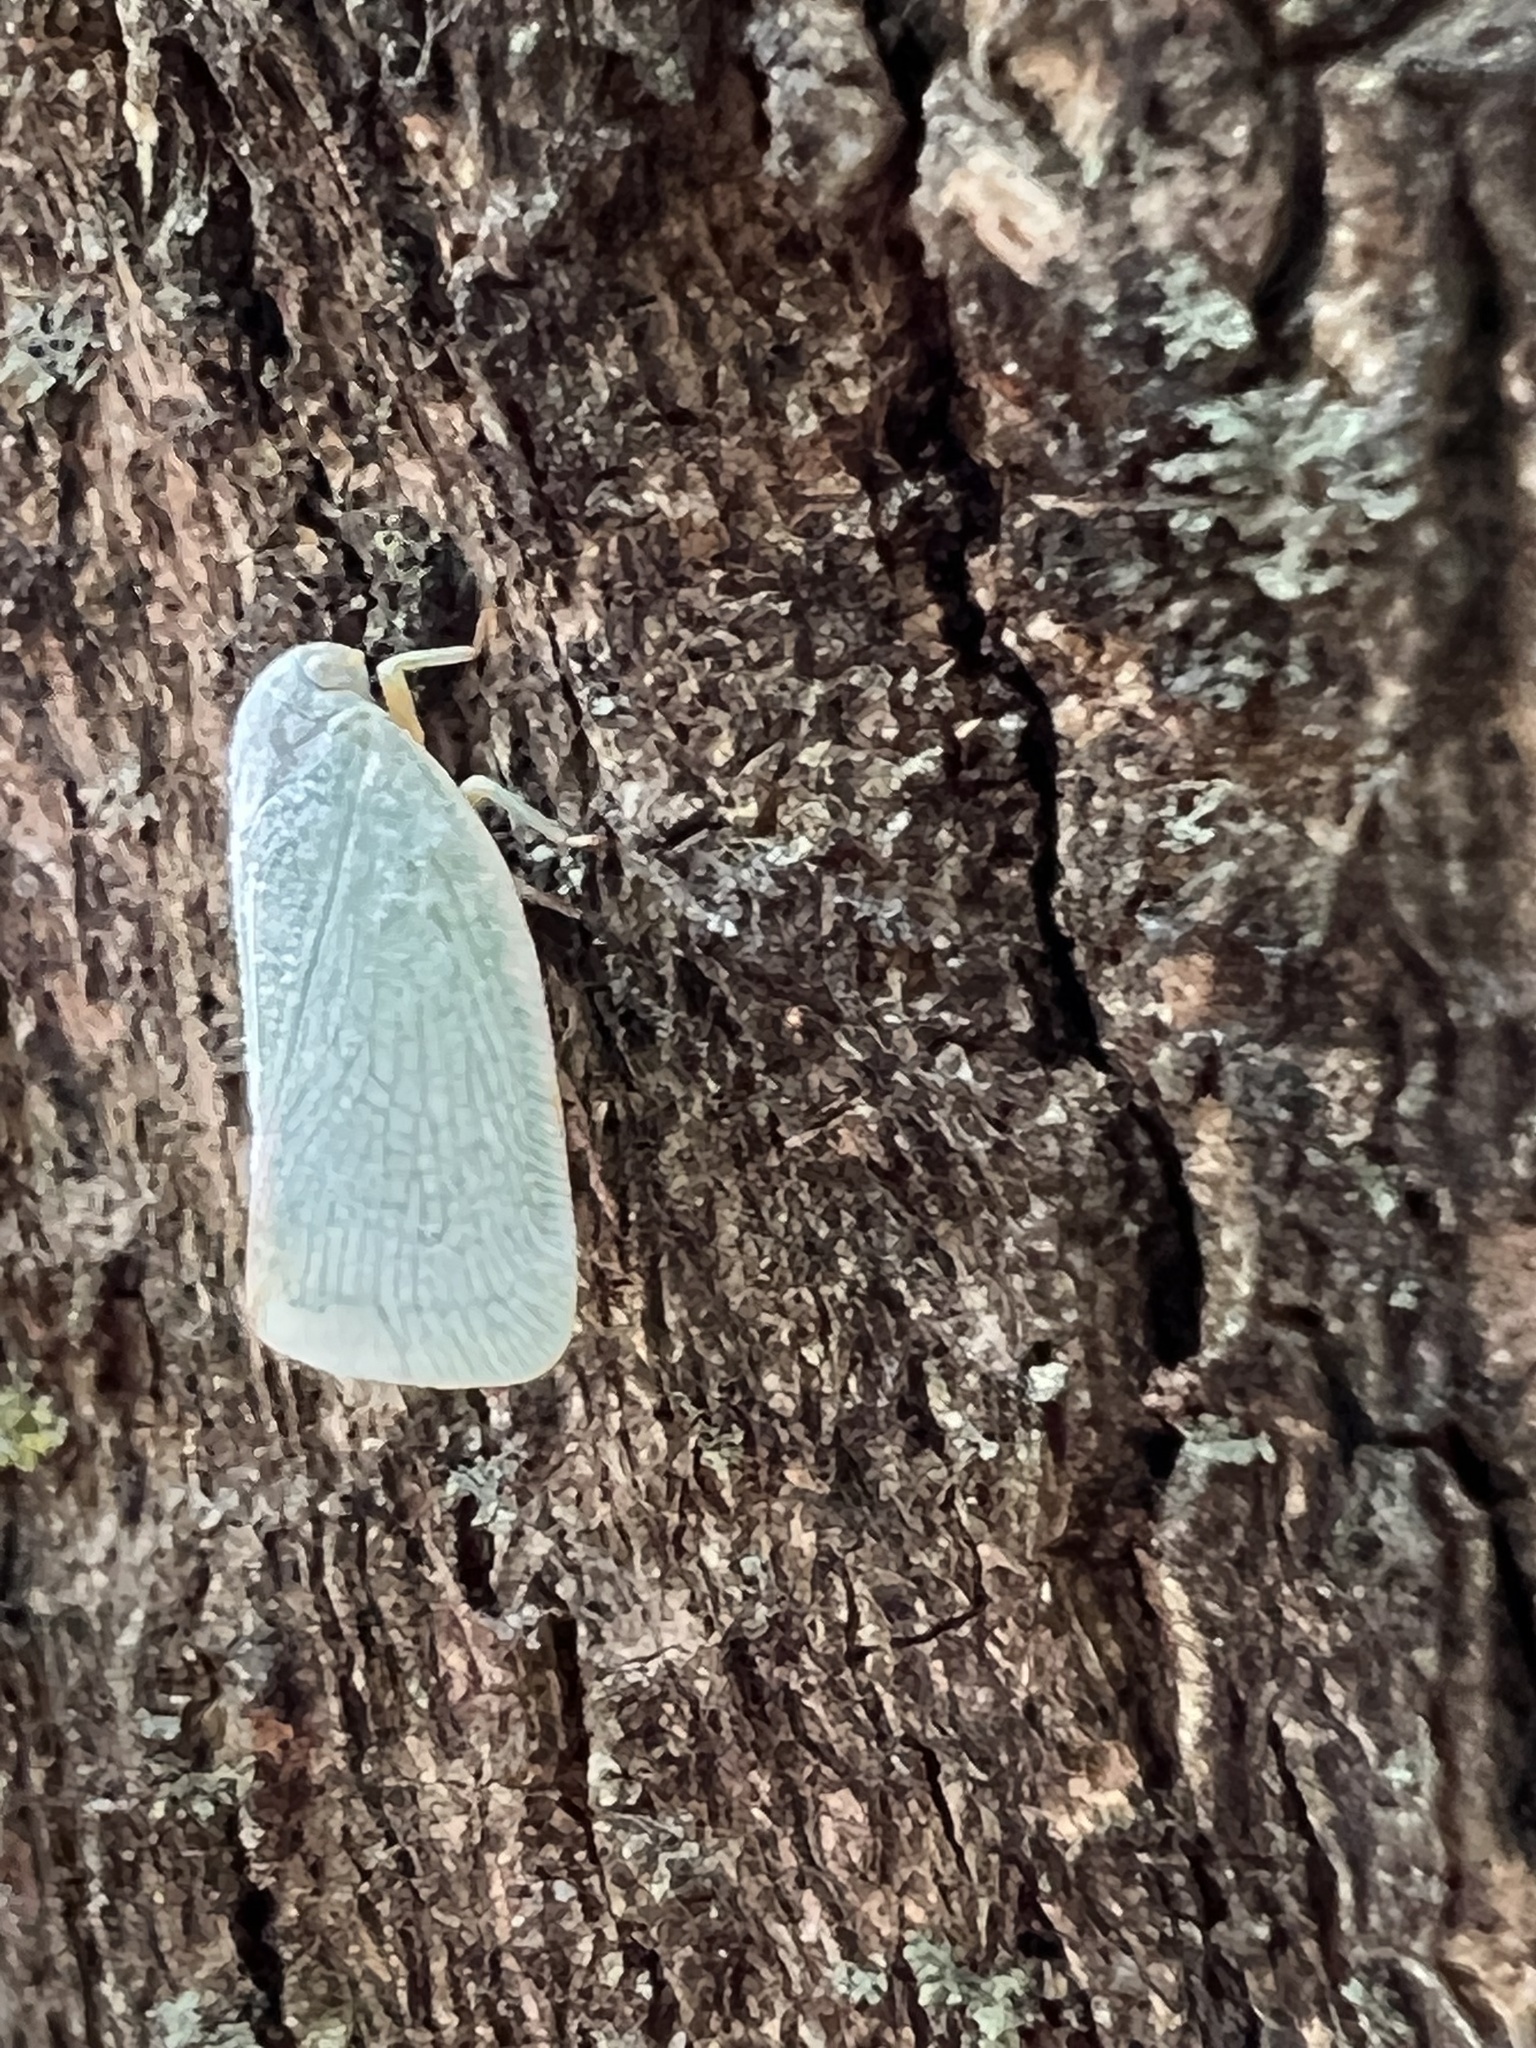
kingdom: Animalia
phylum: Arthropoda
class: Insecta
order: Hemiptera
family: Flatidae
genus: Flatormenis
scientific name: Flatormenis proxima
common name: Northern flatid planthopper
